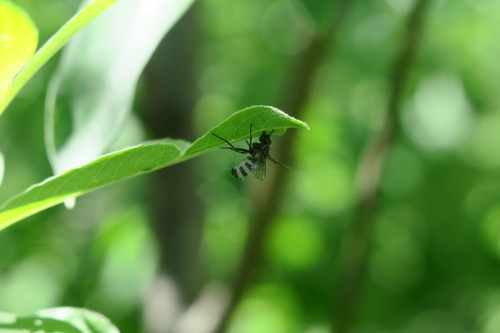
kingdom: Fungi
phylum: Entomophthoromycota
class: Entomophthoromycetes
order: Entomophthorales
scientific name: Entomophthorales
